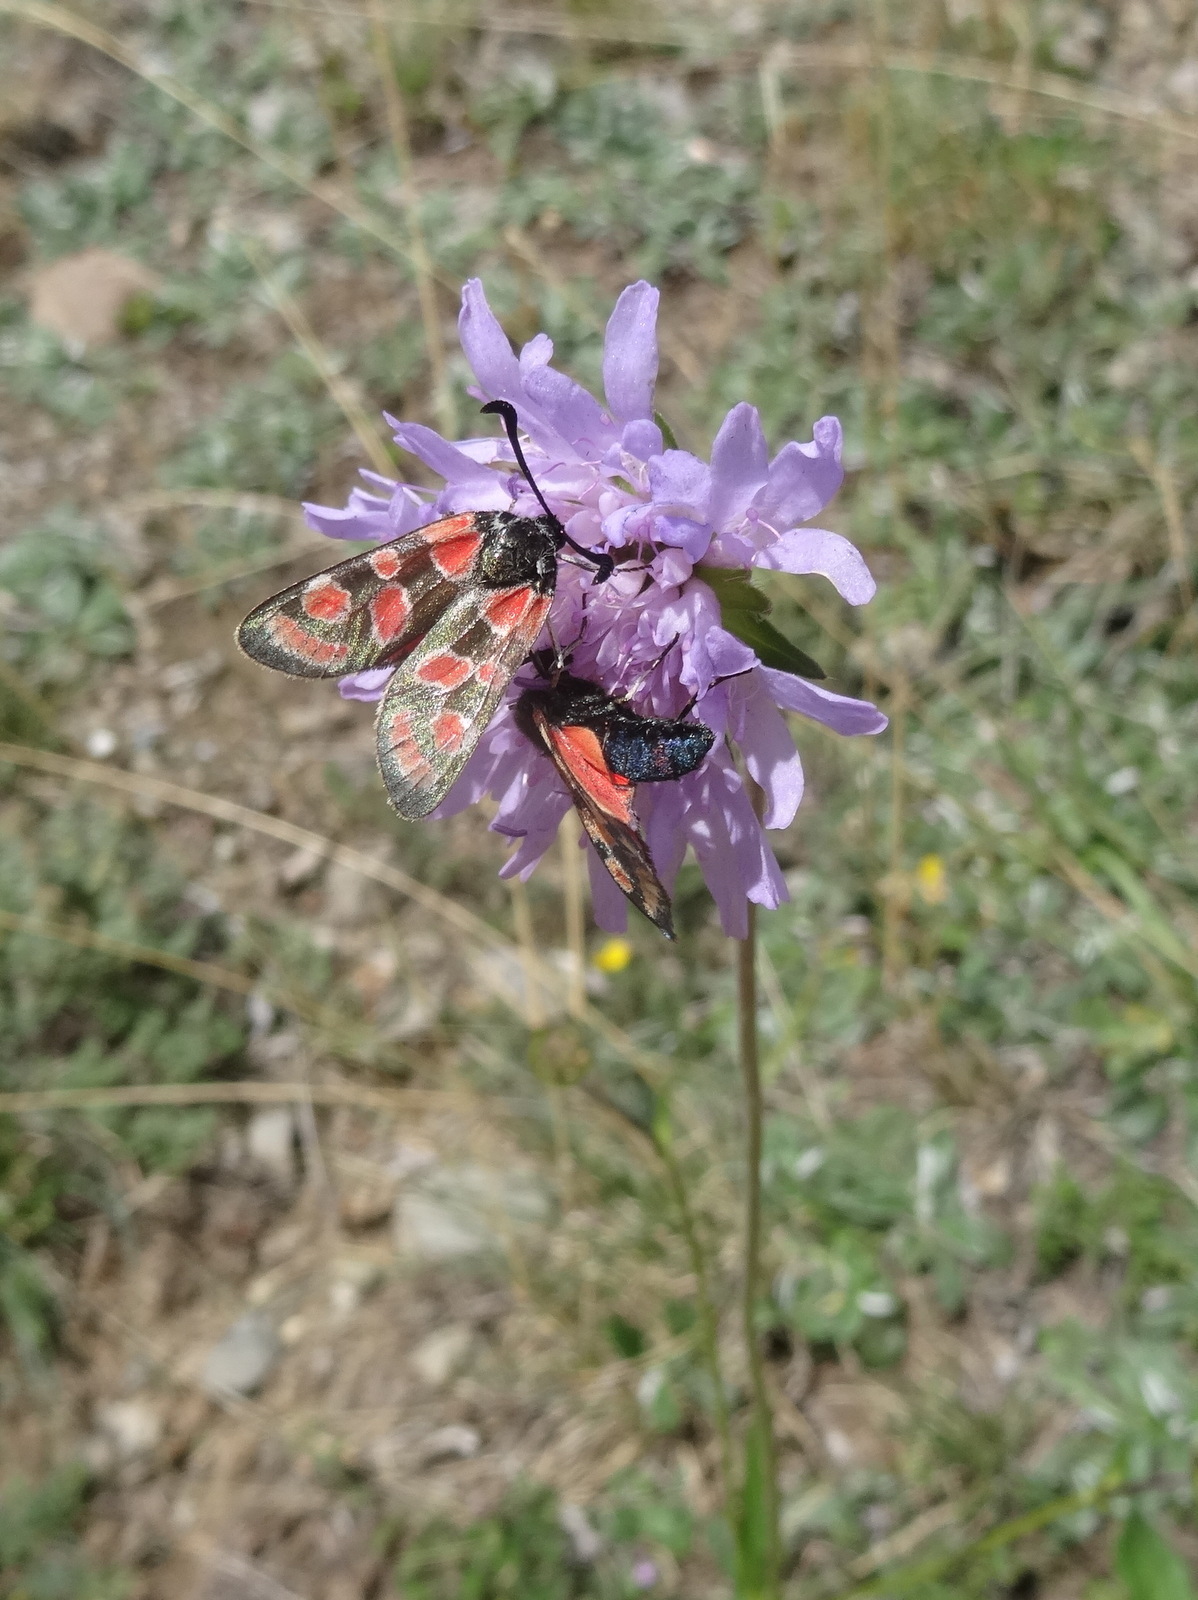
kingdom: Animalia
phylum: Arthropoda
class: Insecta
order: Lepidoptera
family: Zygaenidae
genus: Zygaena
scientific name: Zygaena carniolica
